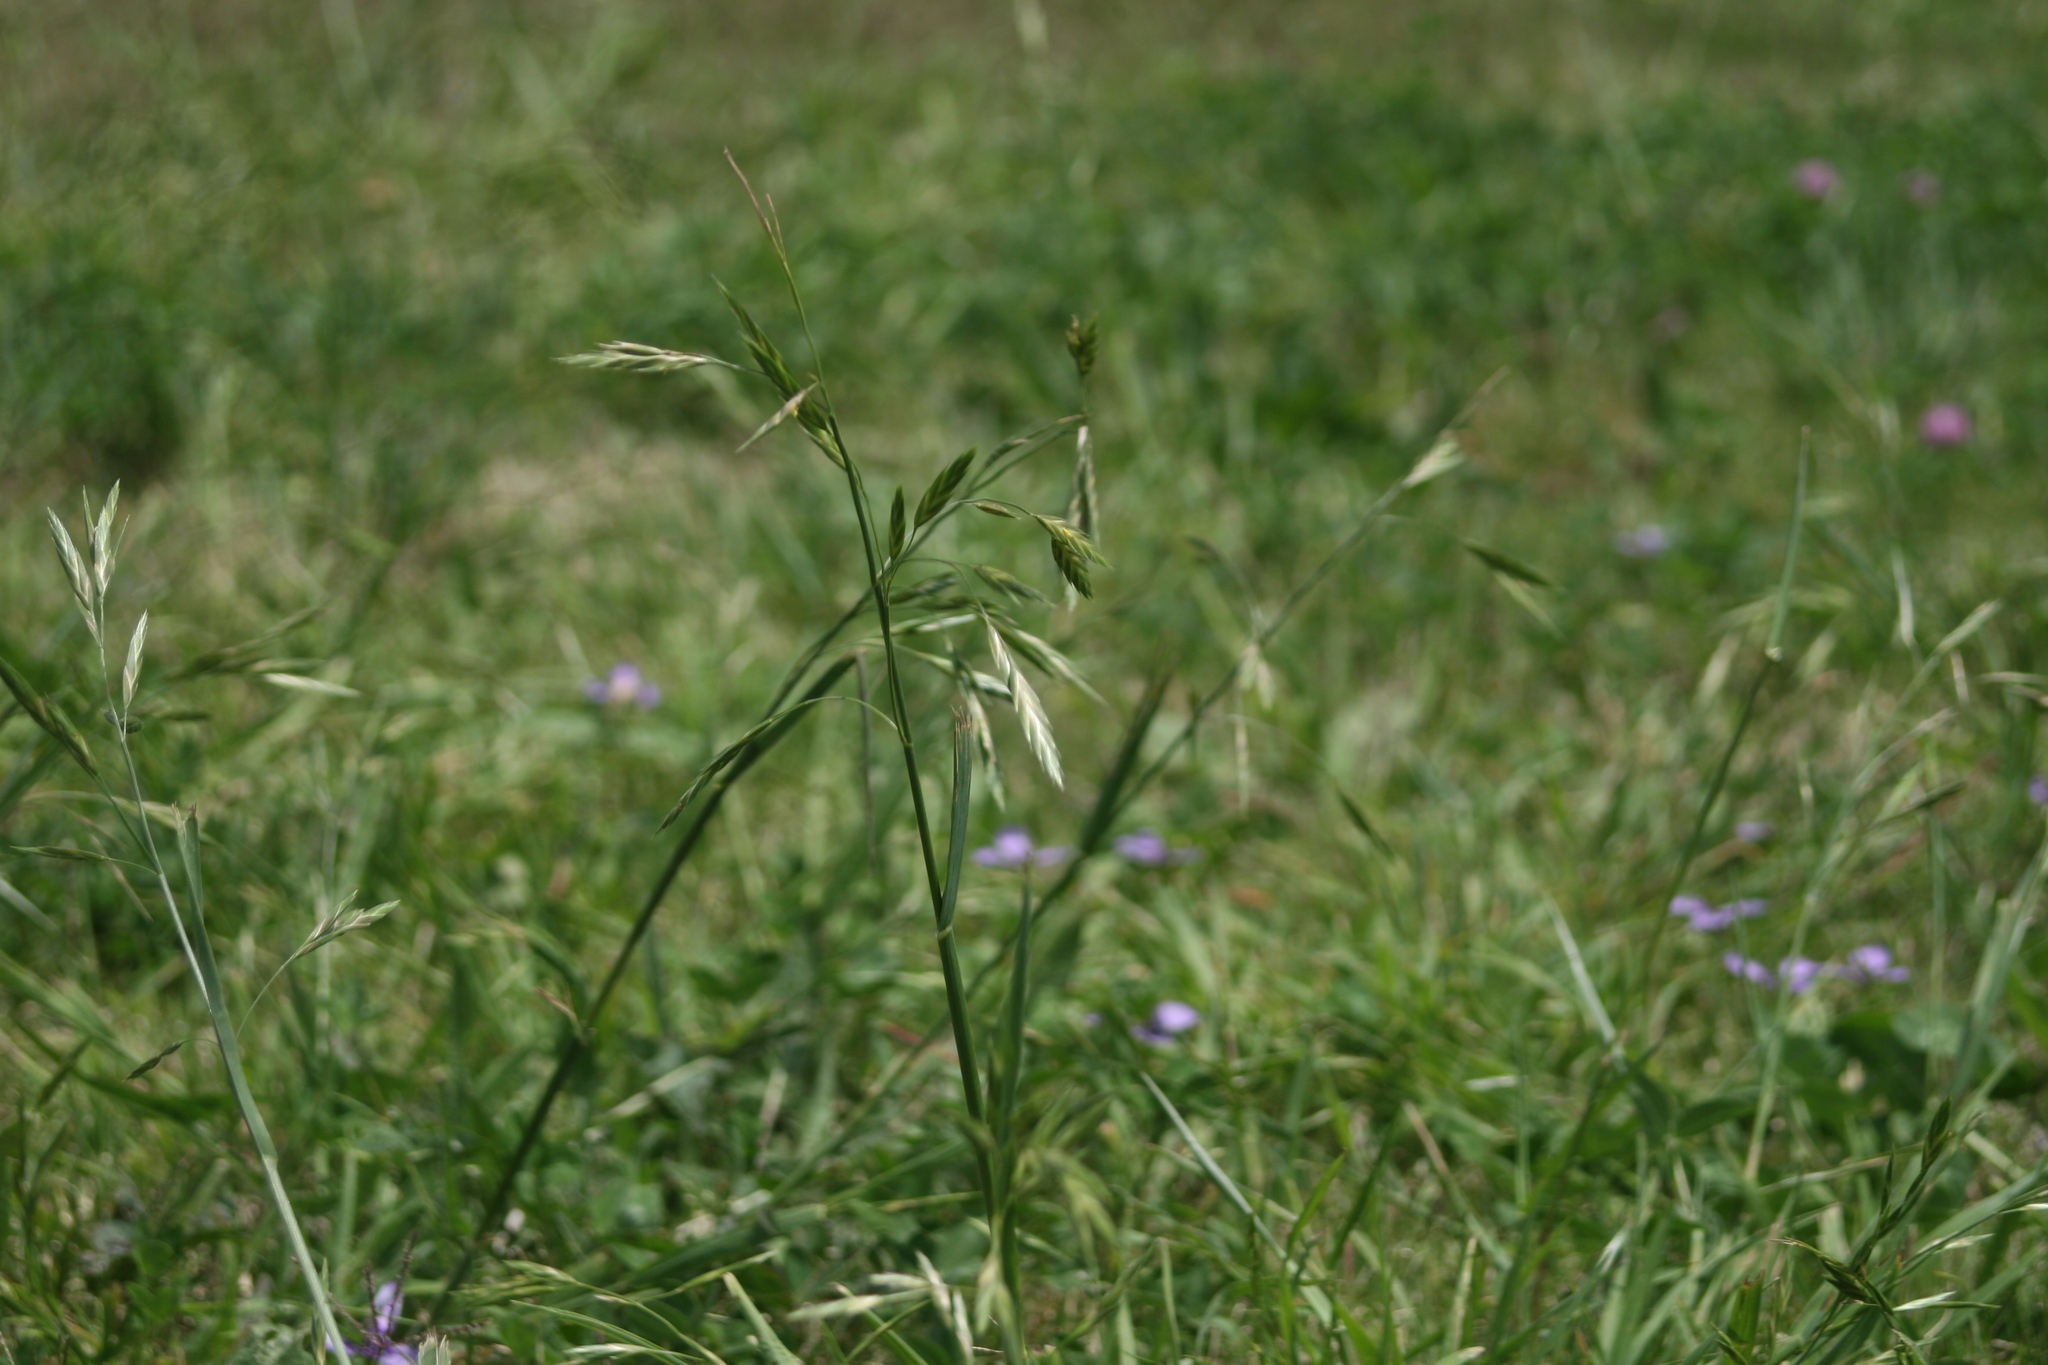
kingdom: Plantae
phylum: Tracheophyta
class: Liliopsida
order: Poales
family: Poaceae
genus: Bromus
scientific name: Bromus catharticus
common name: Rescuegrass
